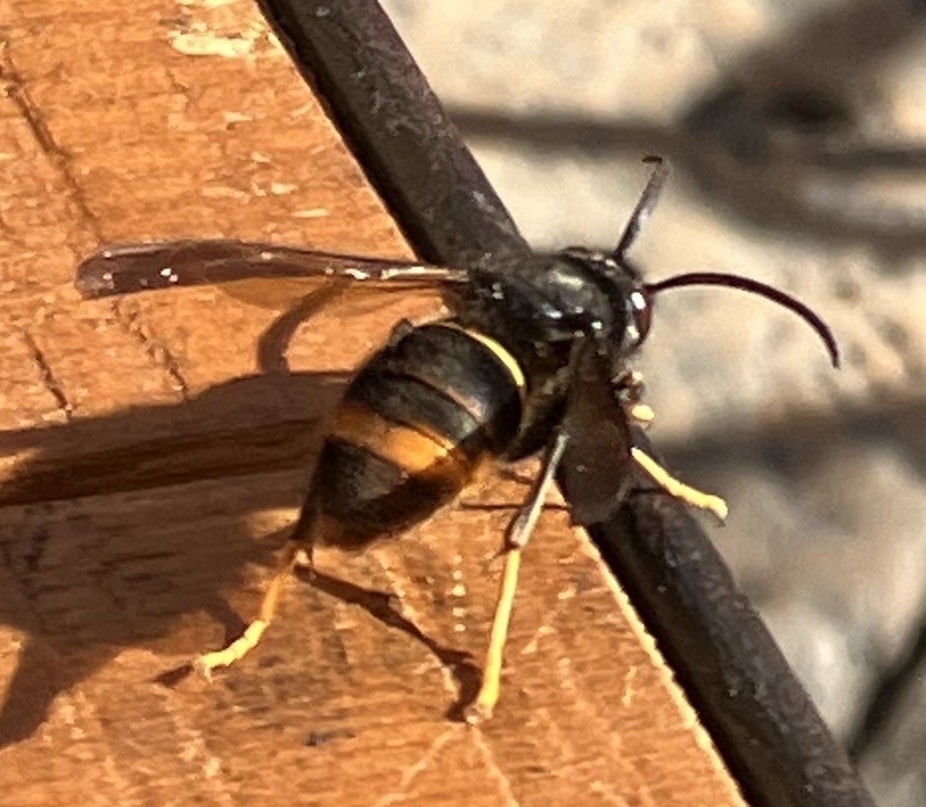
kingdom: Animalia
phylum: Arthropoda
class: Insecta
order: Hymenoptera
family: Vespidae
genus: Vespa
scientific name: Vespa velutina
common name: Asian hornet
